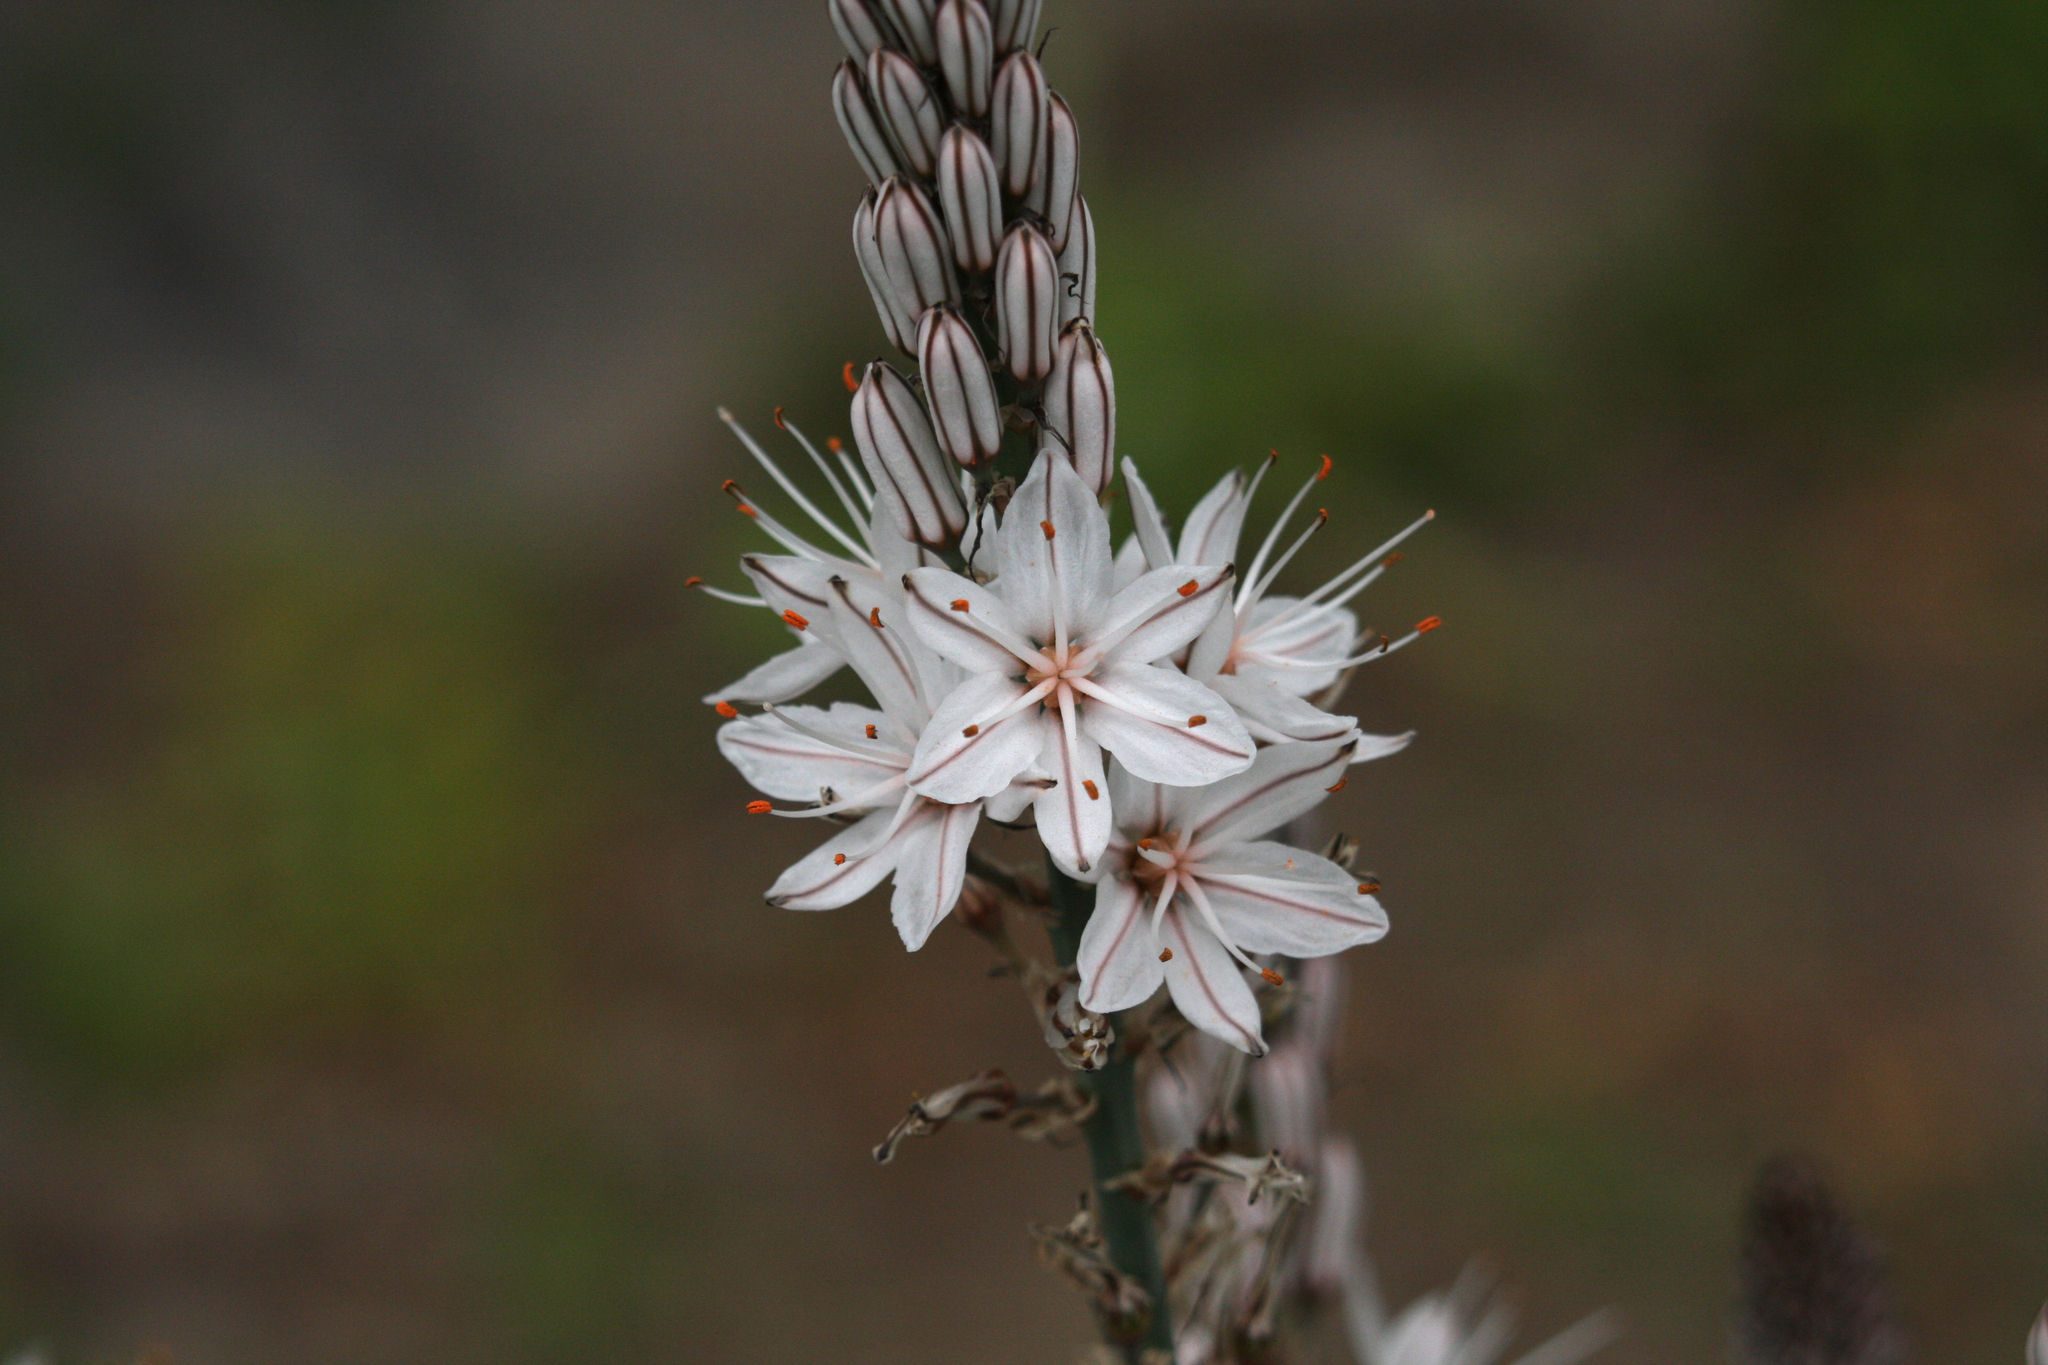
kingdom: Plantae
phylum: Tracheophyta
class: Liliopsida
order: Asparagales
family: Asphodelaceae
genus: Asphodelus
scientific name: Asphodelus ramosus
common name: Silverrod
